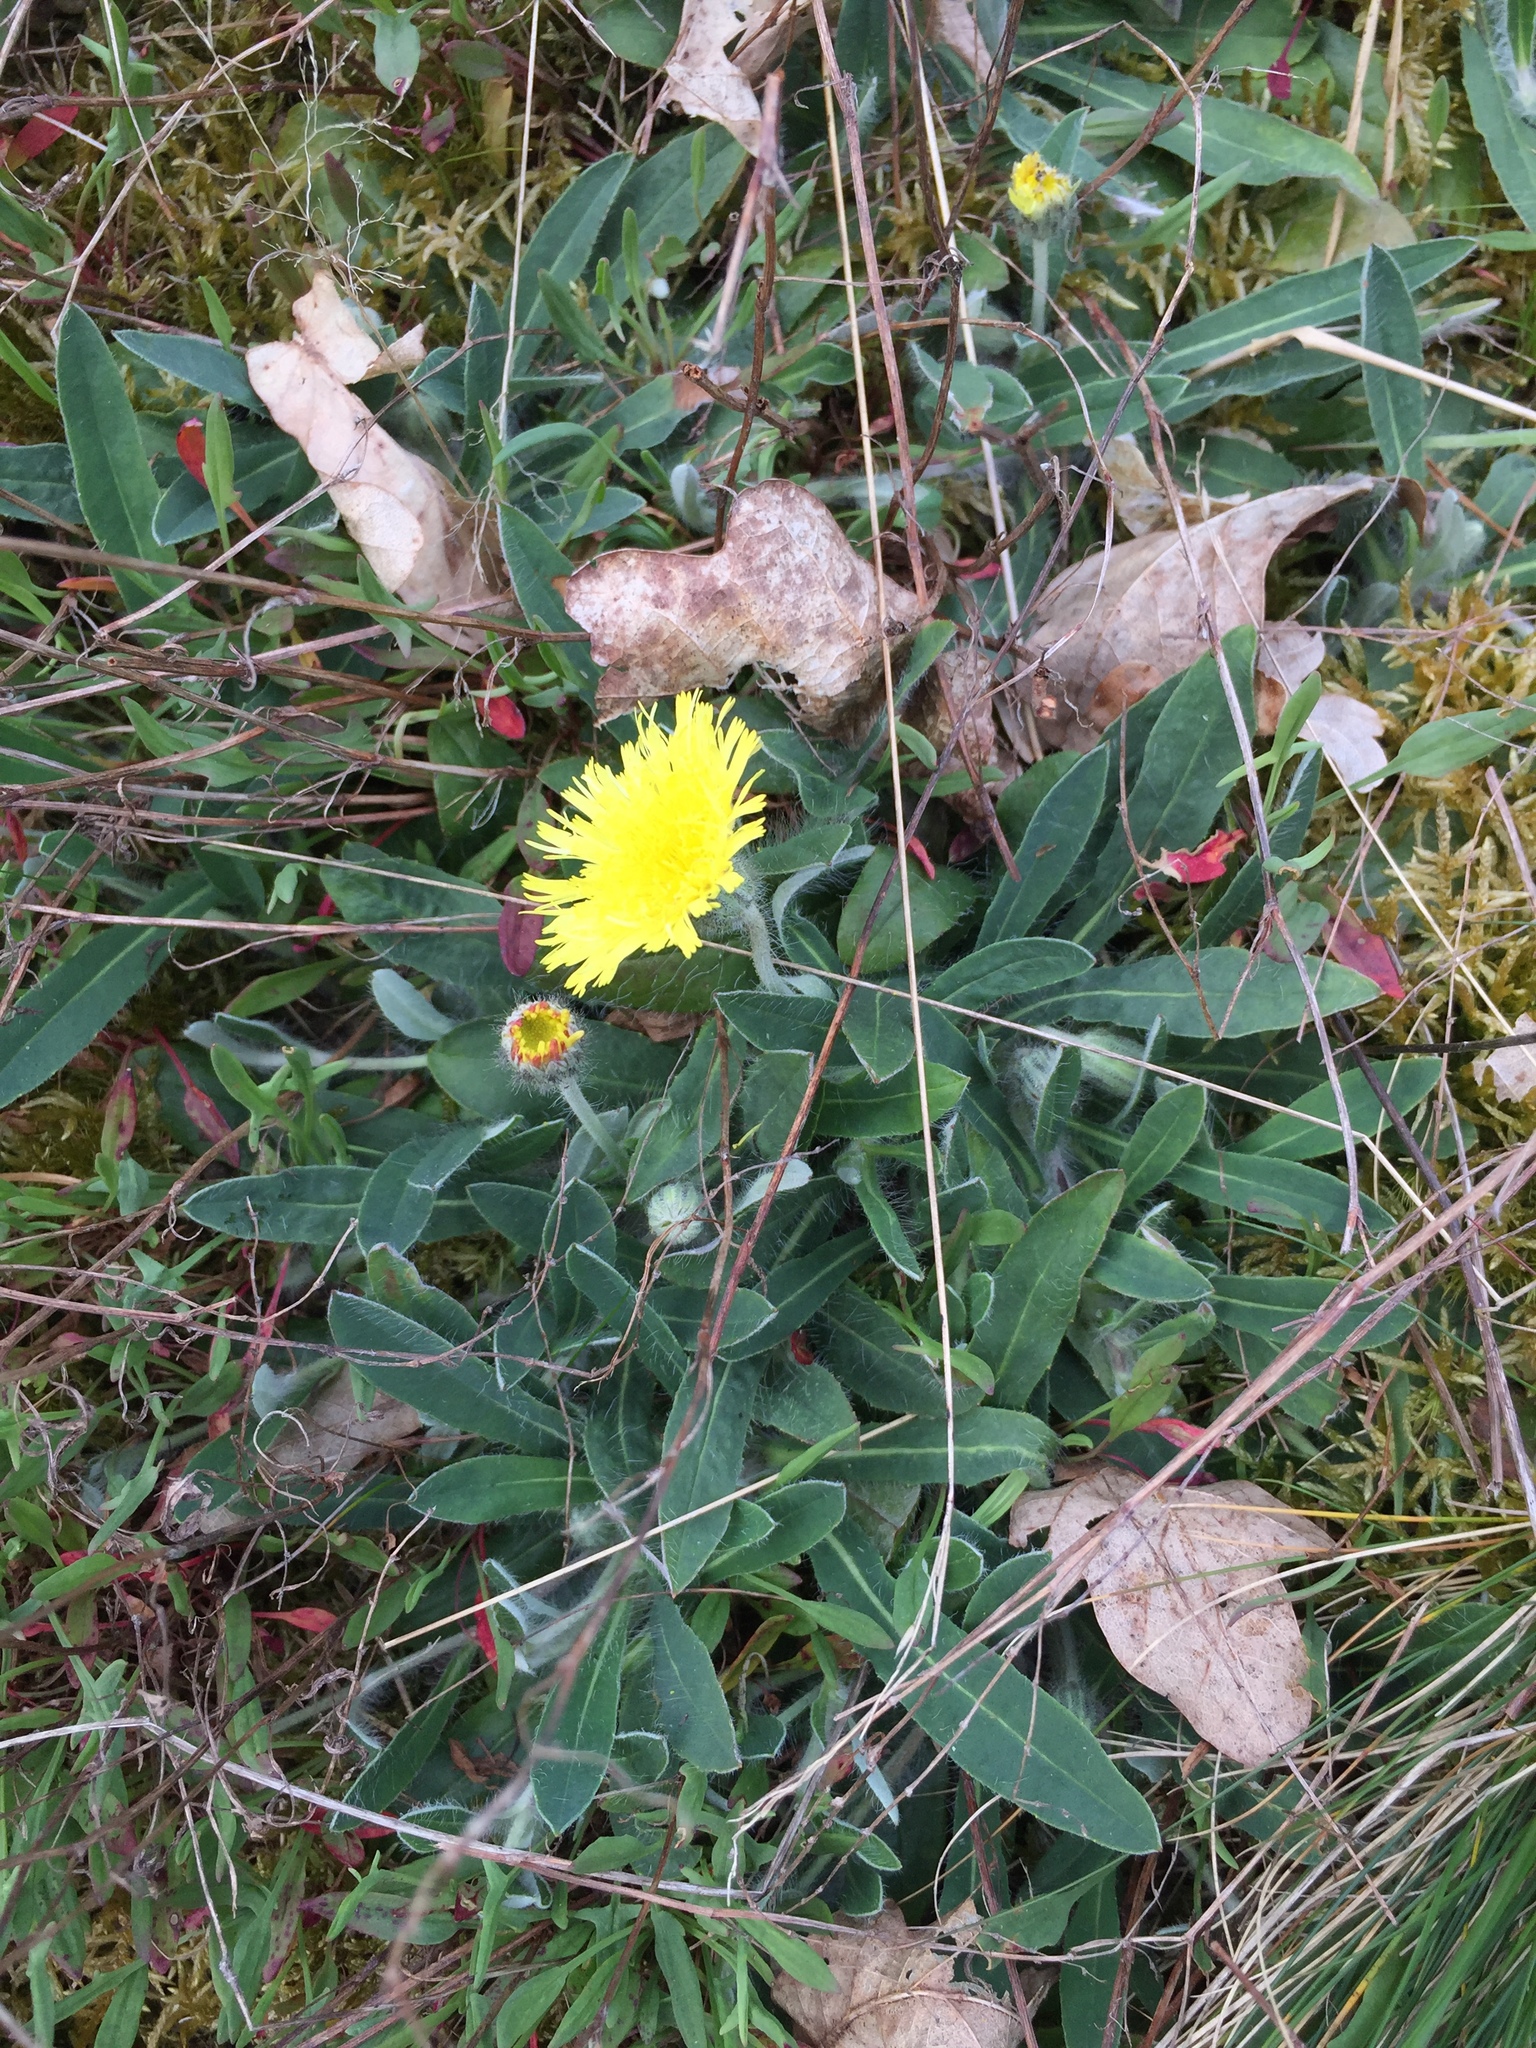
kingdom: Plantae
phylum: Tracheophyta
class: Magnoliopsida
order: Asterales
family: Asteraceae
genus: Pilosella
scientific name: Pilosella officinarum
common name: Mouse-ear hawkweed
